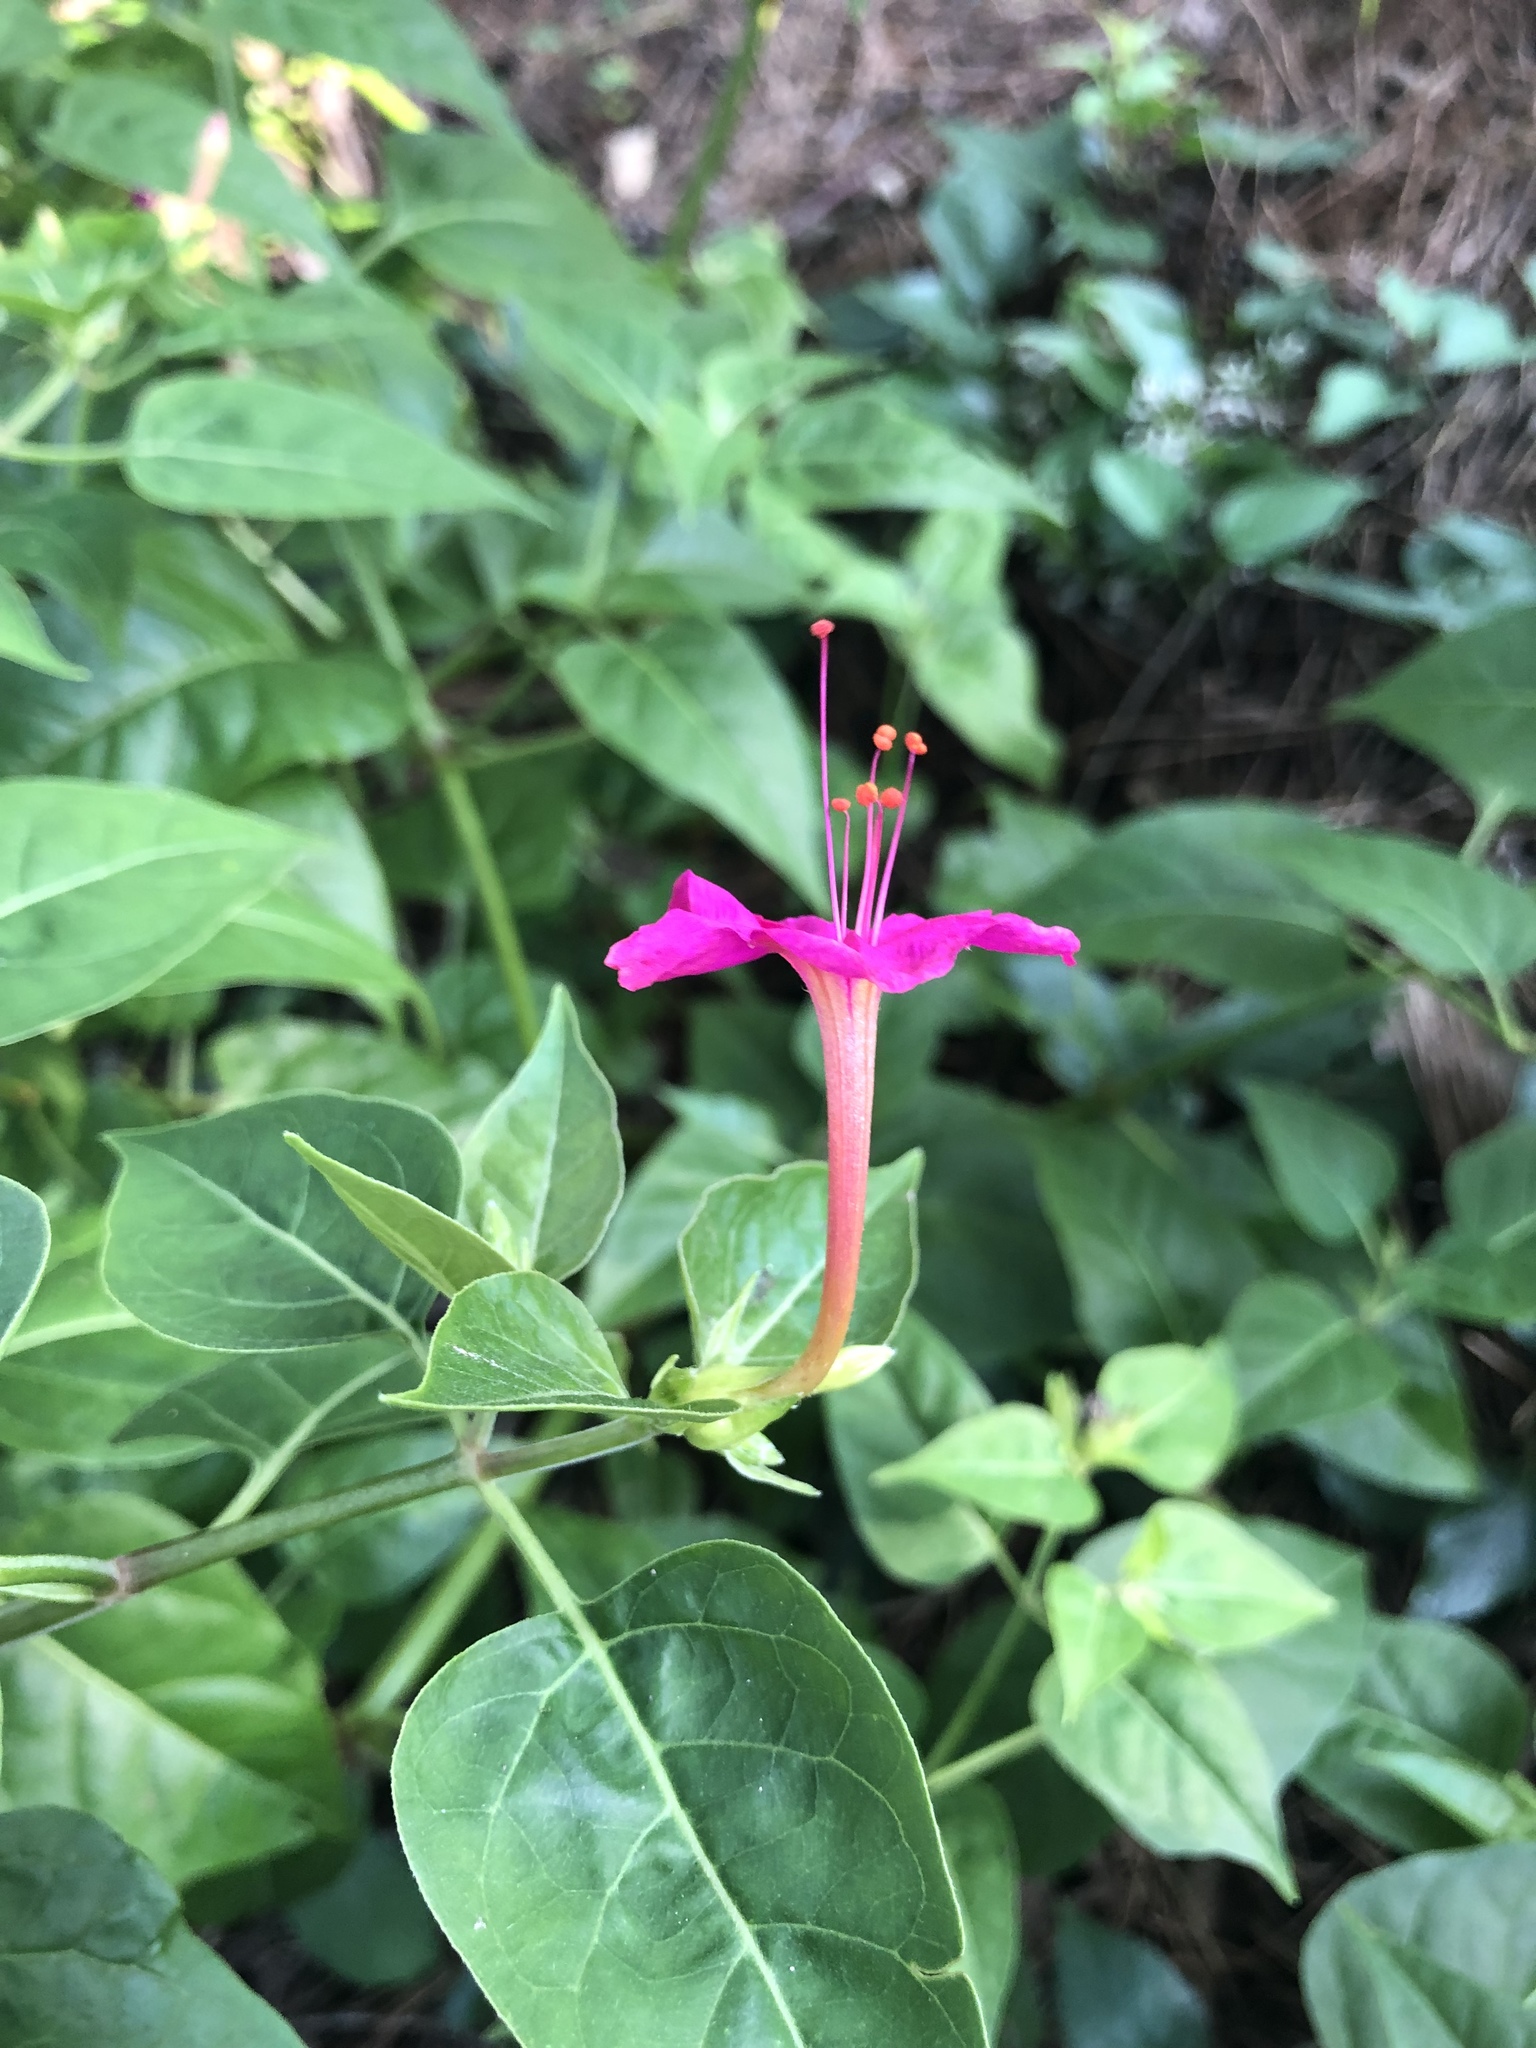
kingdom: Plantae
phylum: Tracheophyta
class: Magnoliopsida
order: Caryophyllales
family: Nyctaginaceae
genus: Mirabilis
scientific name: Mirabilis jalapa
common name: Marvel-of-peru
